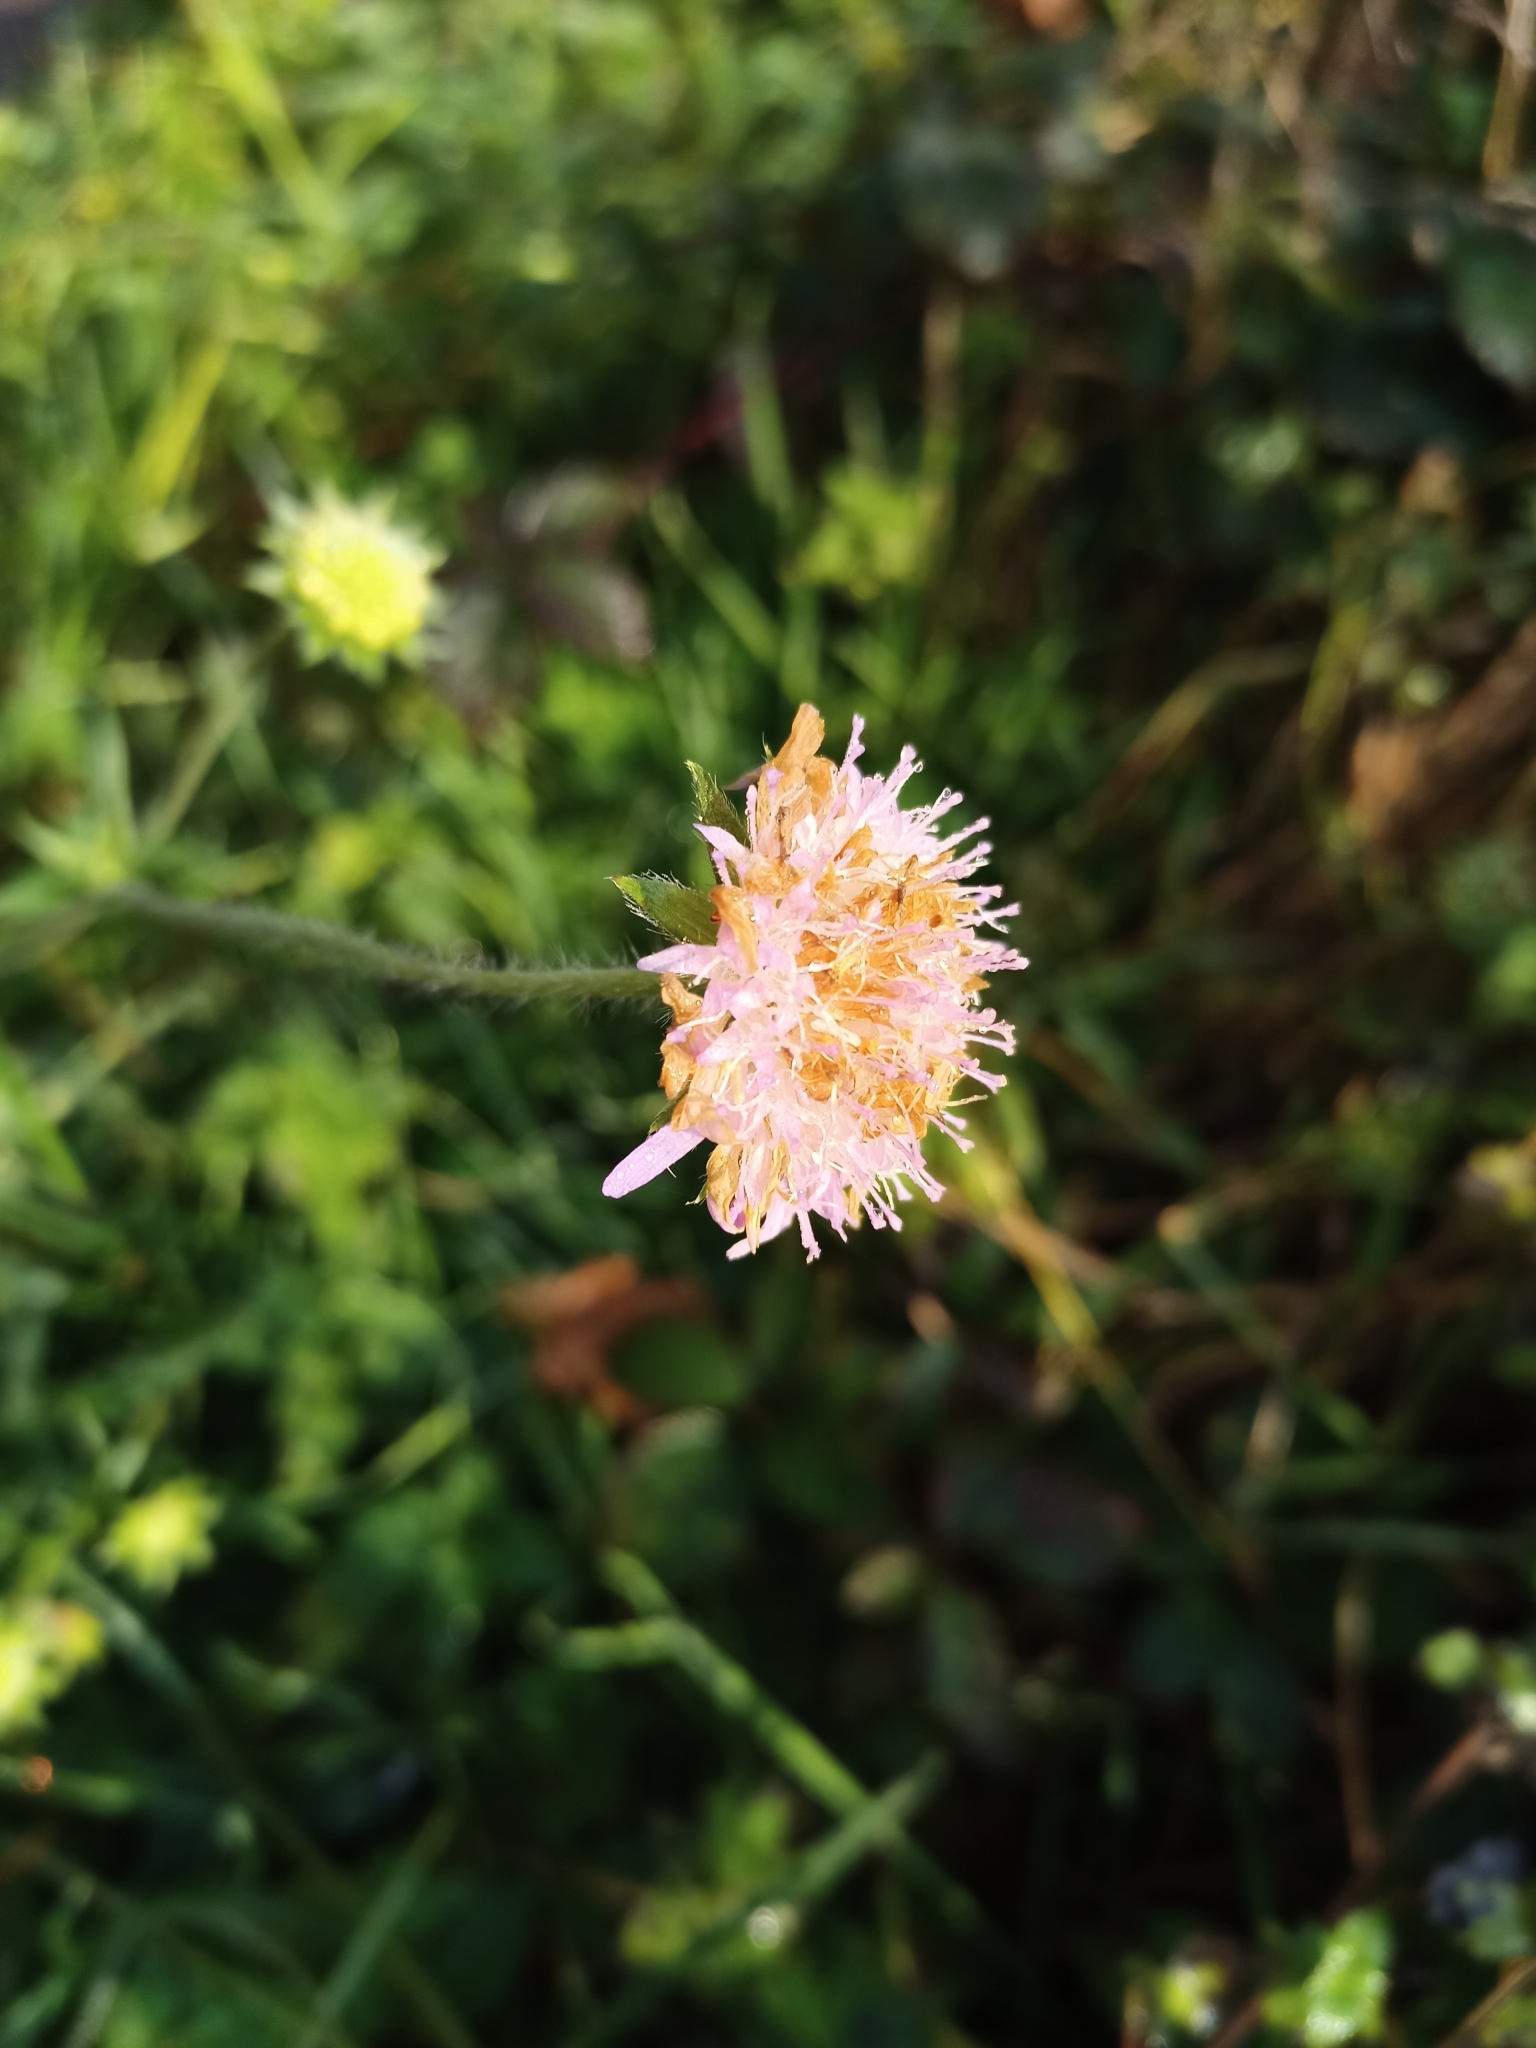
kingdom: Plantae
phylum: Tracheophyta
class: Magnoliopsida
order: Dipsacales
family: Caprifoliaceae
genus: Knautia
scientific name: Knautia arvensis
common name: Field scabiosa
